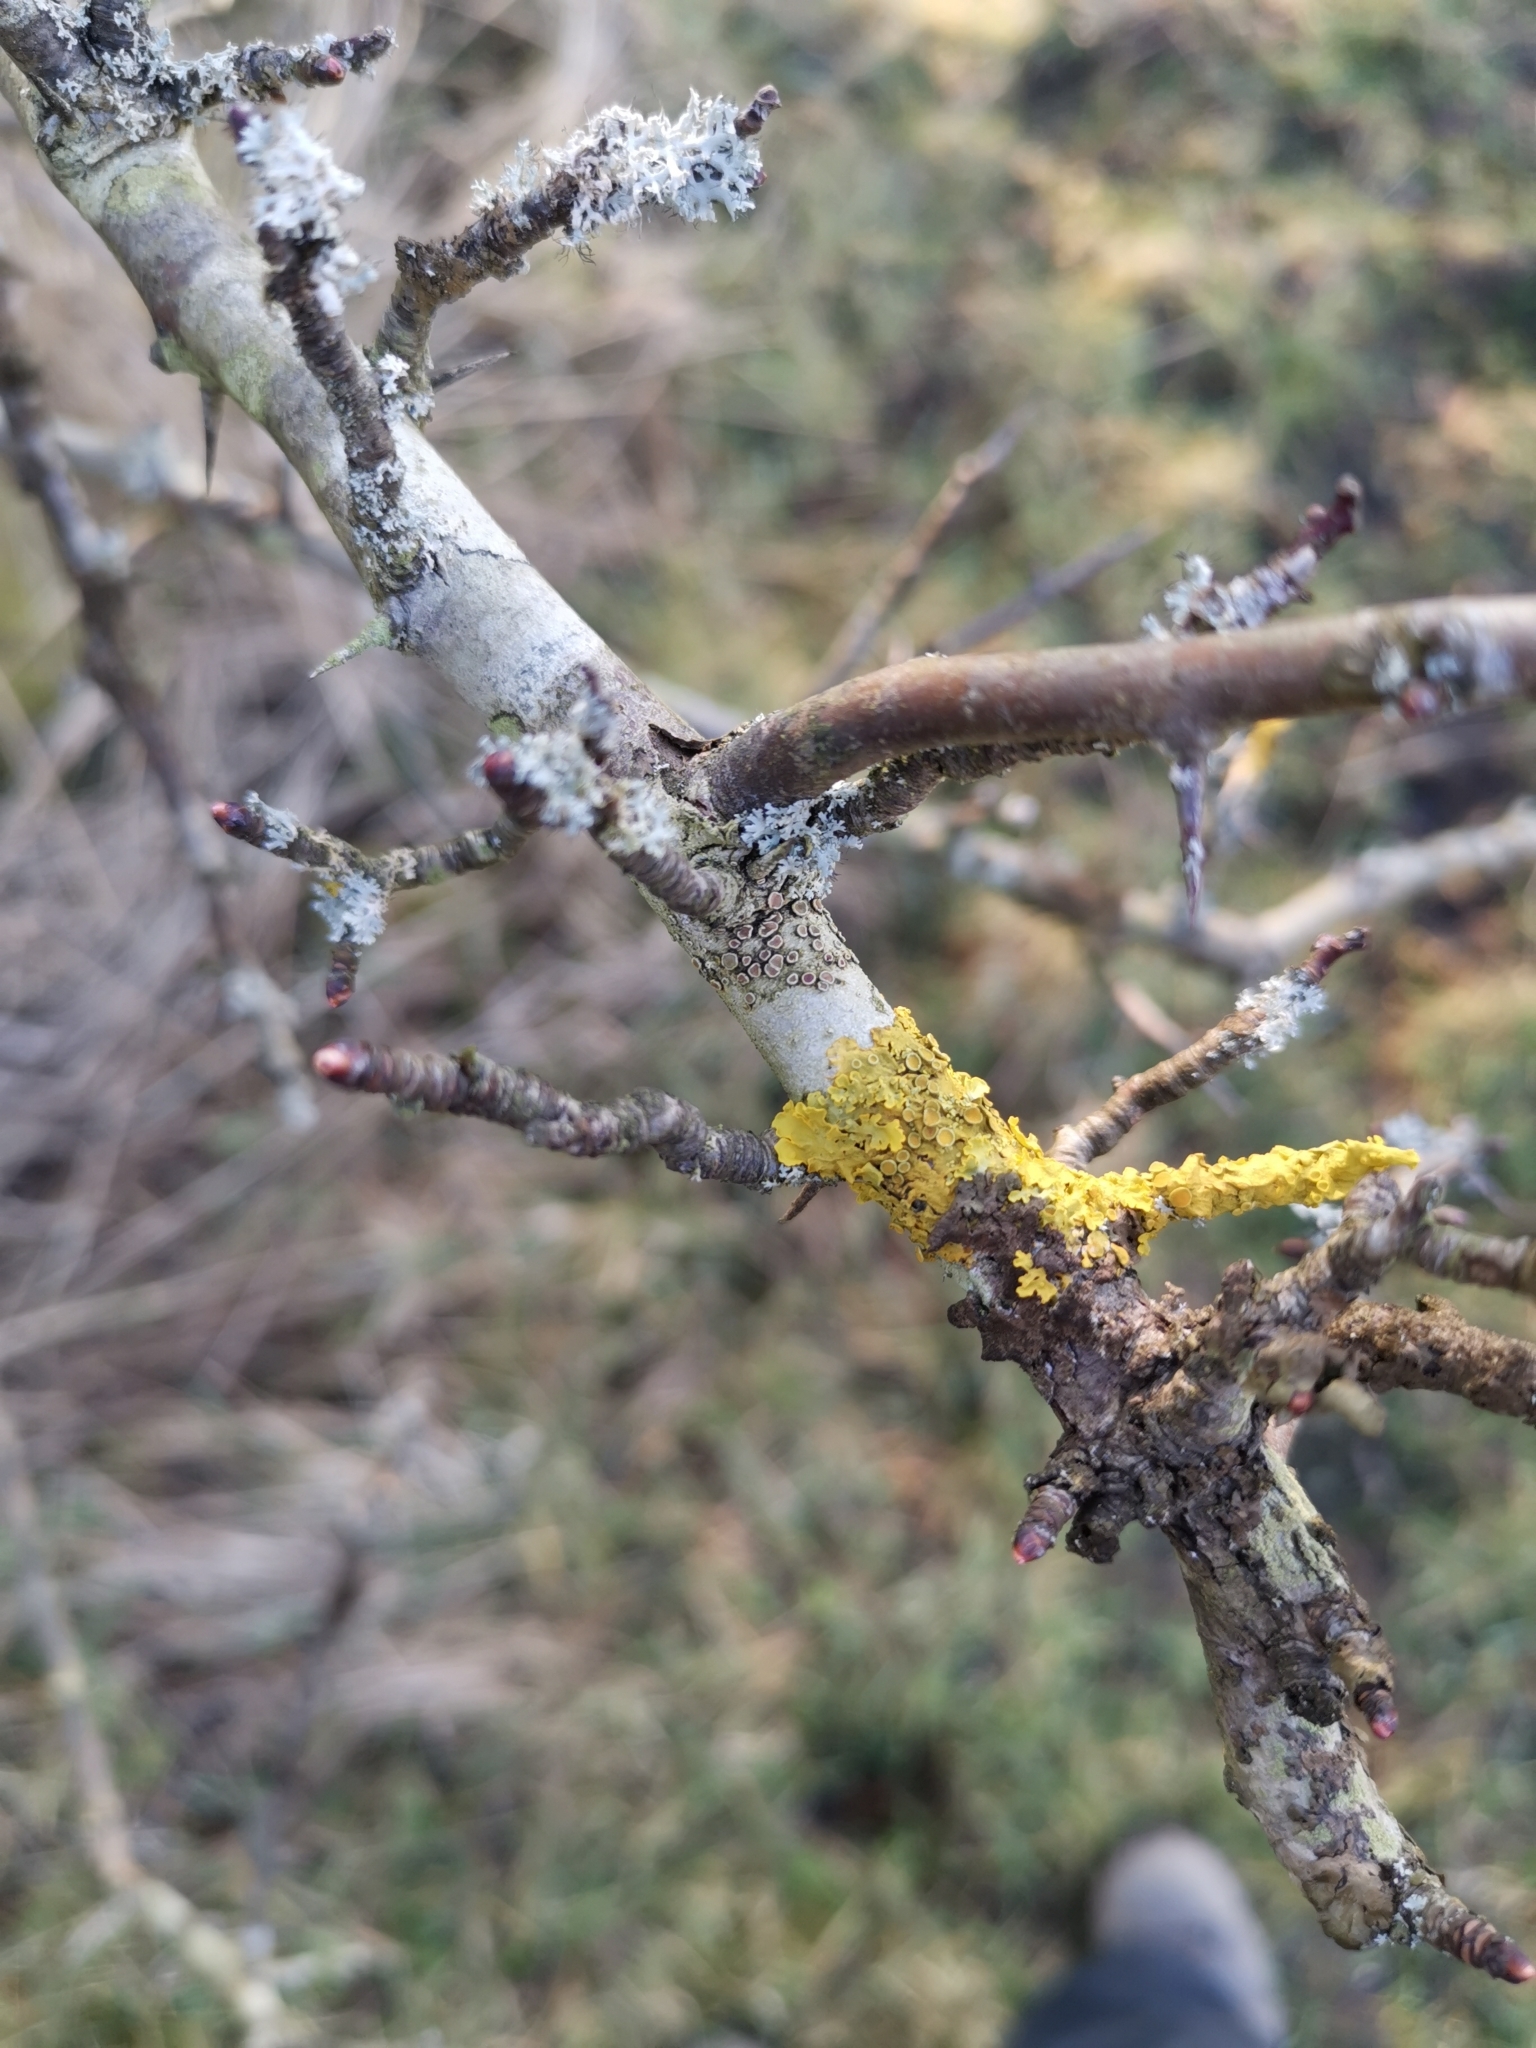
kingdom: Fungi
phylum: Ascomycota
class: Lecanoromycetes
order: Teloschistales
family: Teloschistaceae
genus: Xanthoria
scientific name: Xanthoria parietina
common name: Common orange lichen
